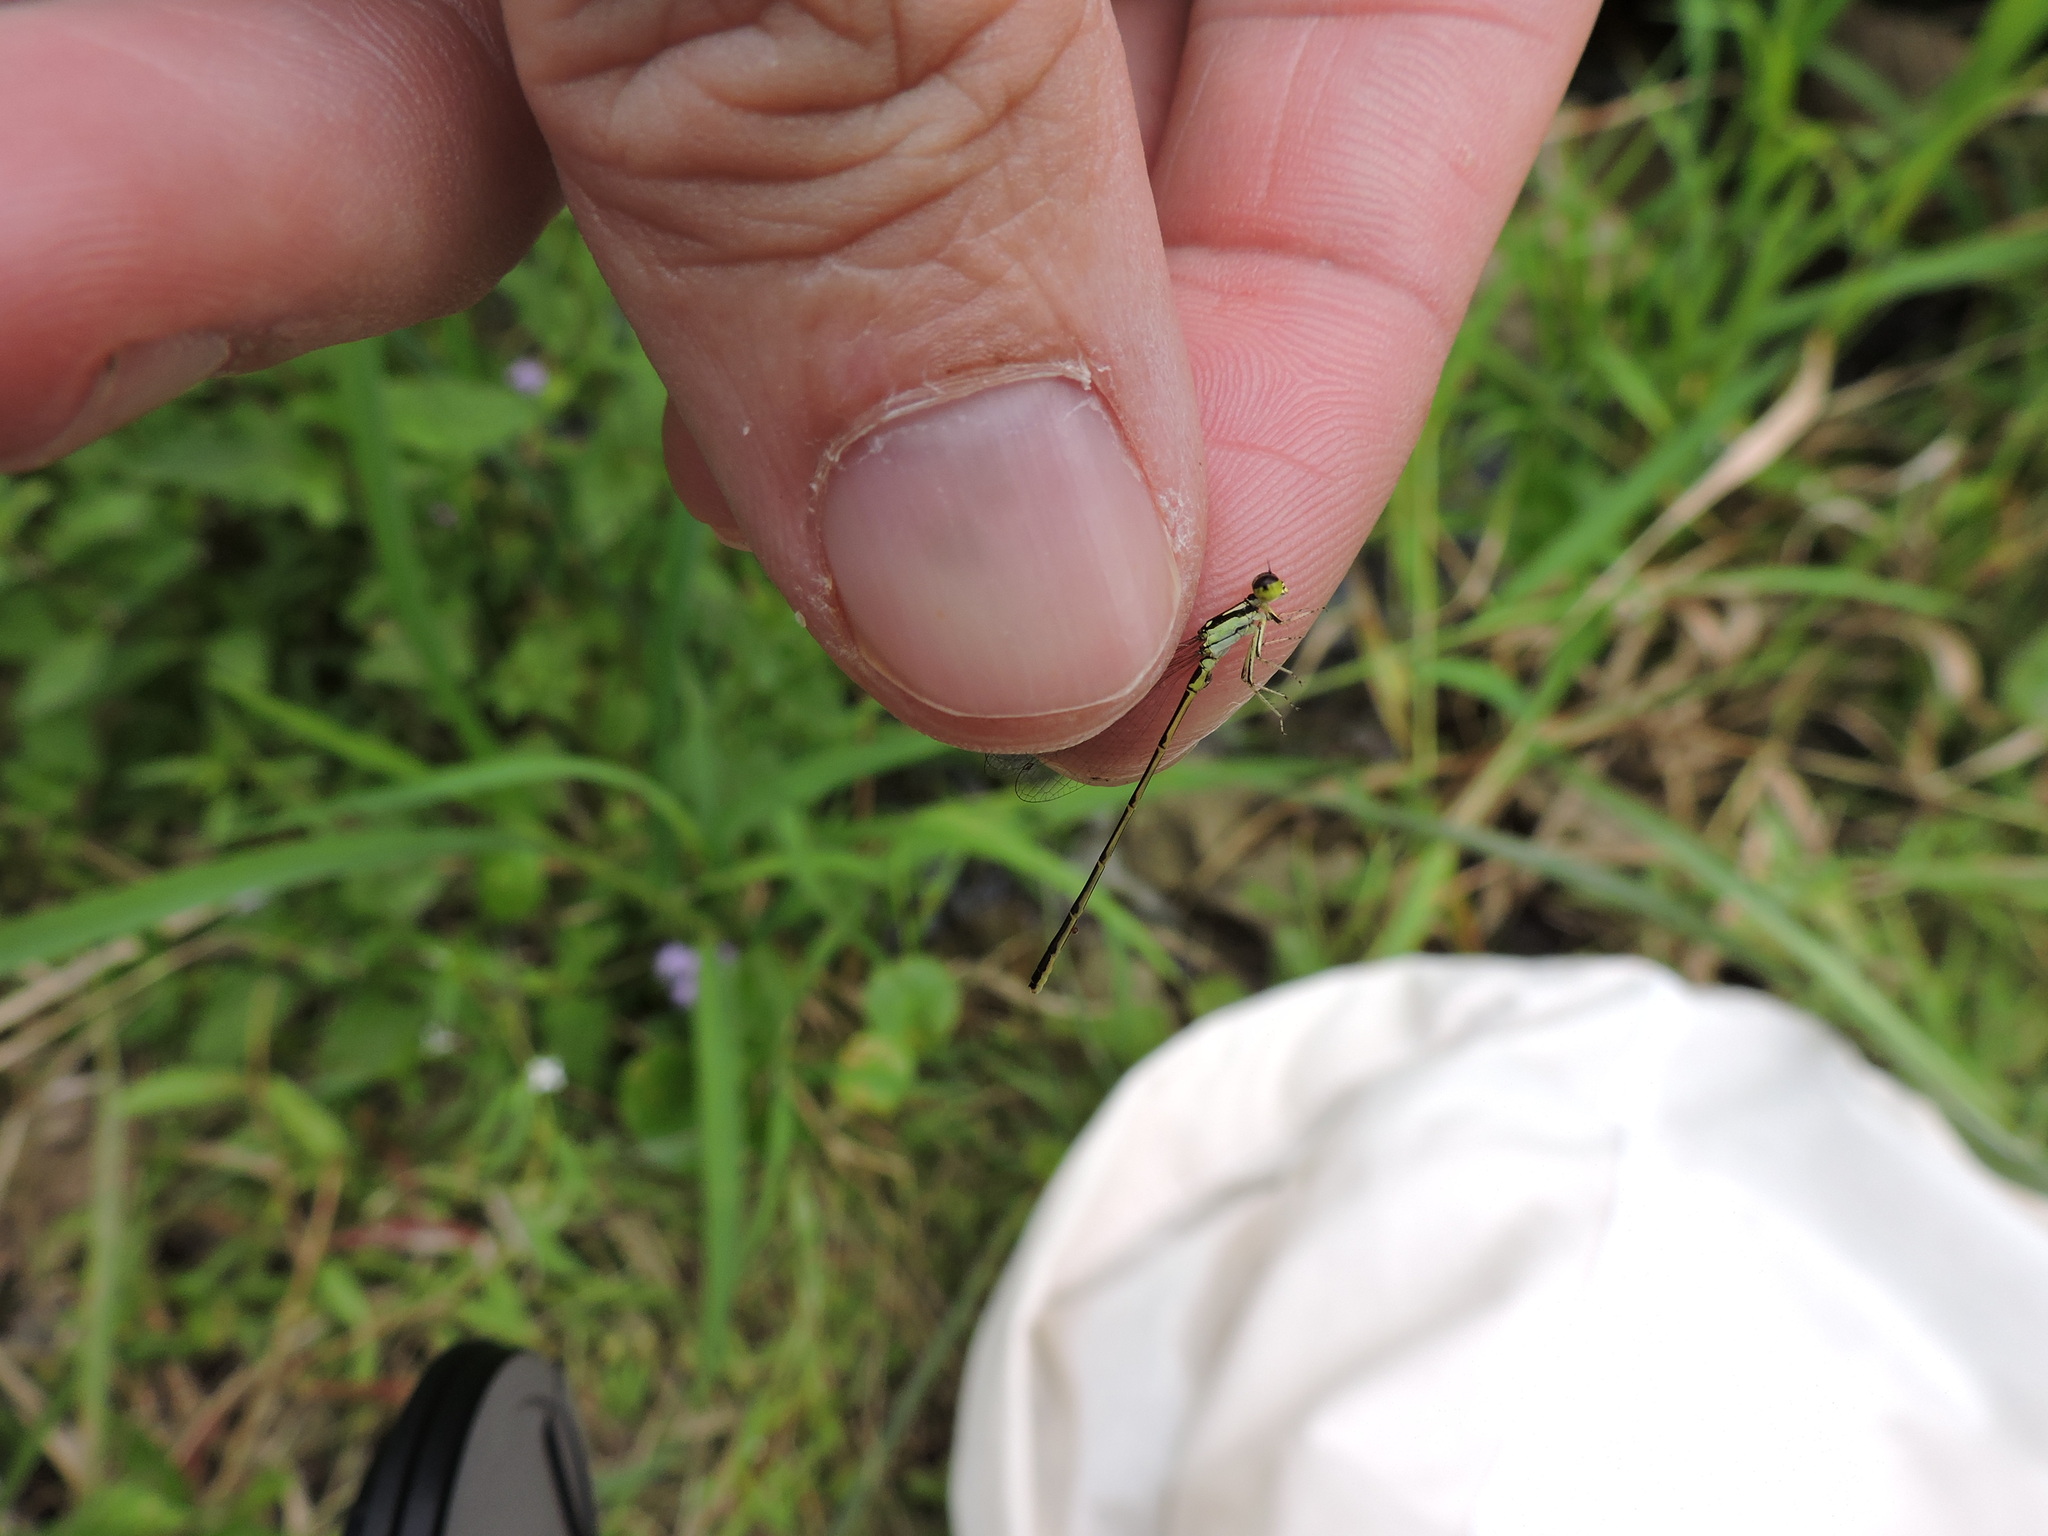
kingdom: Animalia
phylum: Arthropoda
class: Insecta
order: Odonata
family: Coenagrionidae
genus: Ischnura
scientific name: Ischnura posita
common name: Fragile forktail
